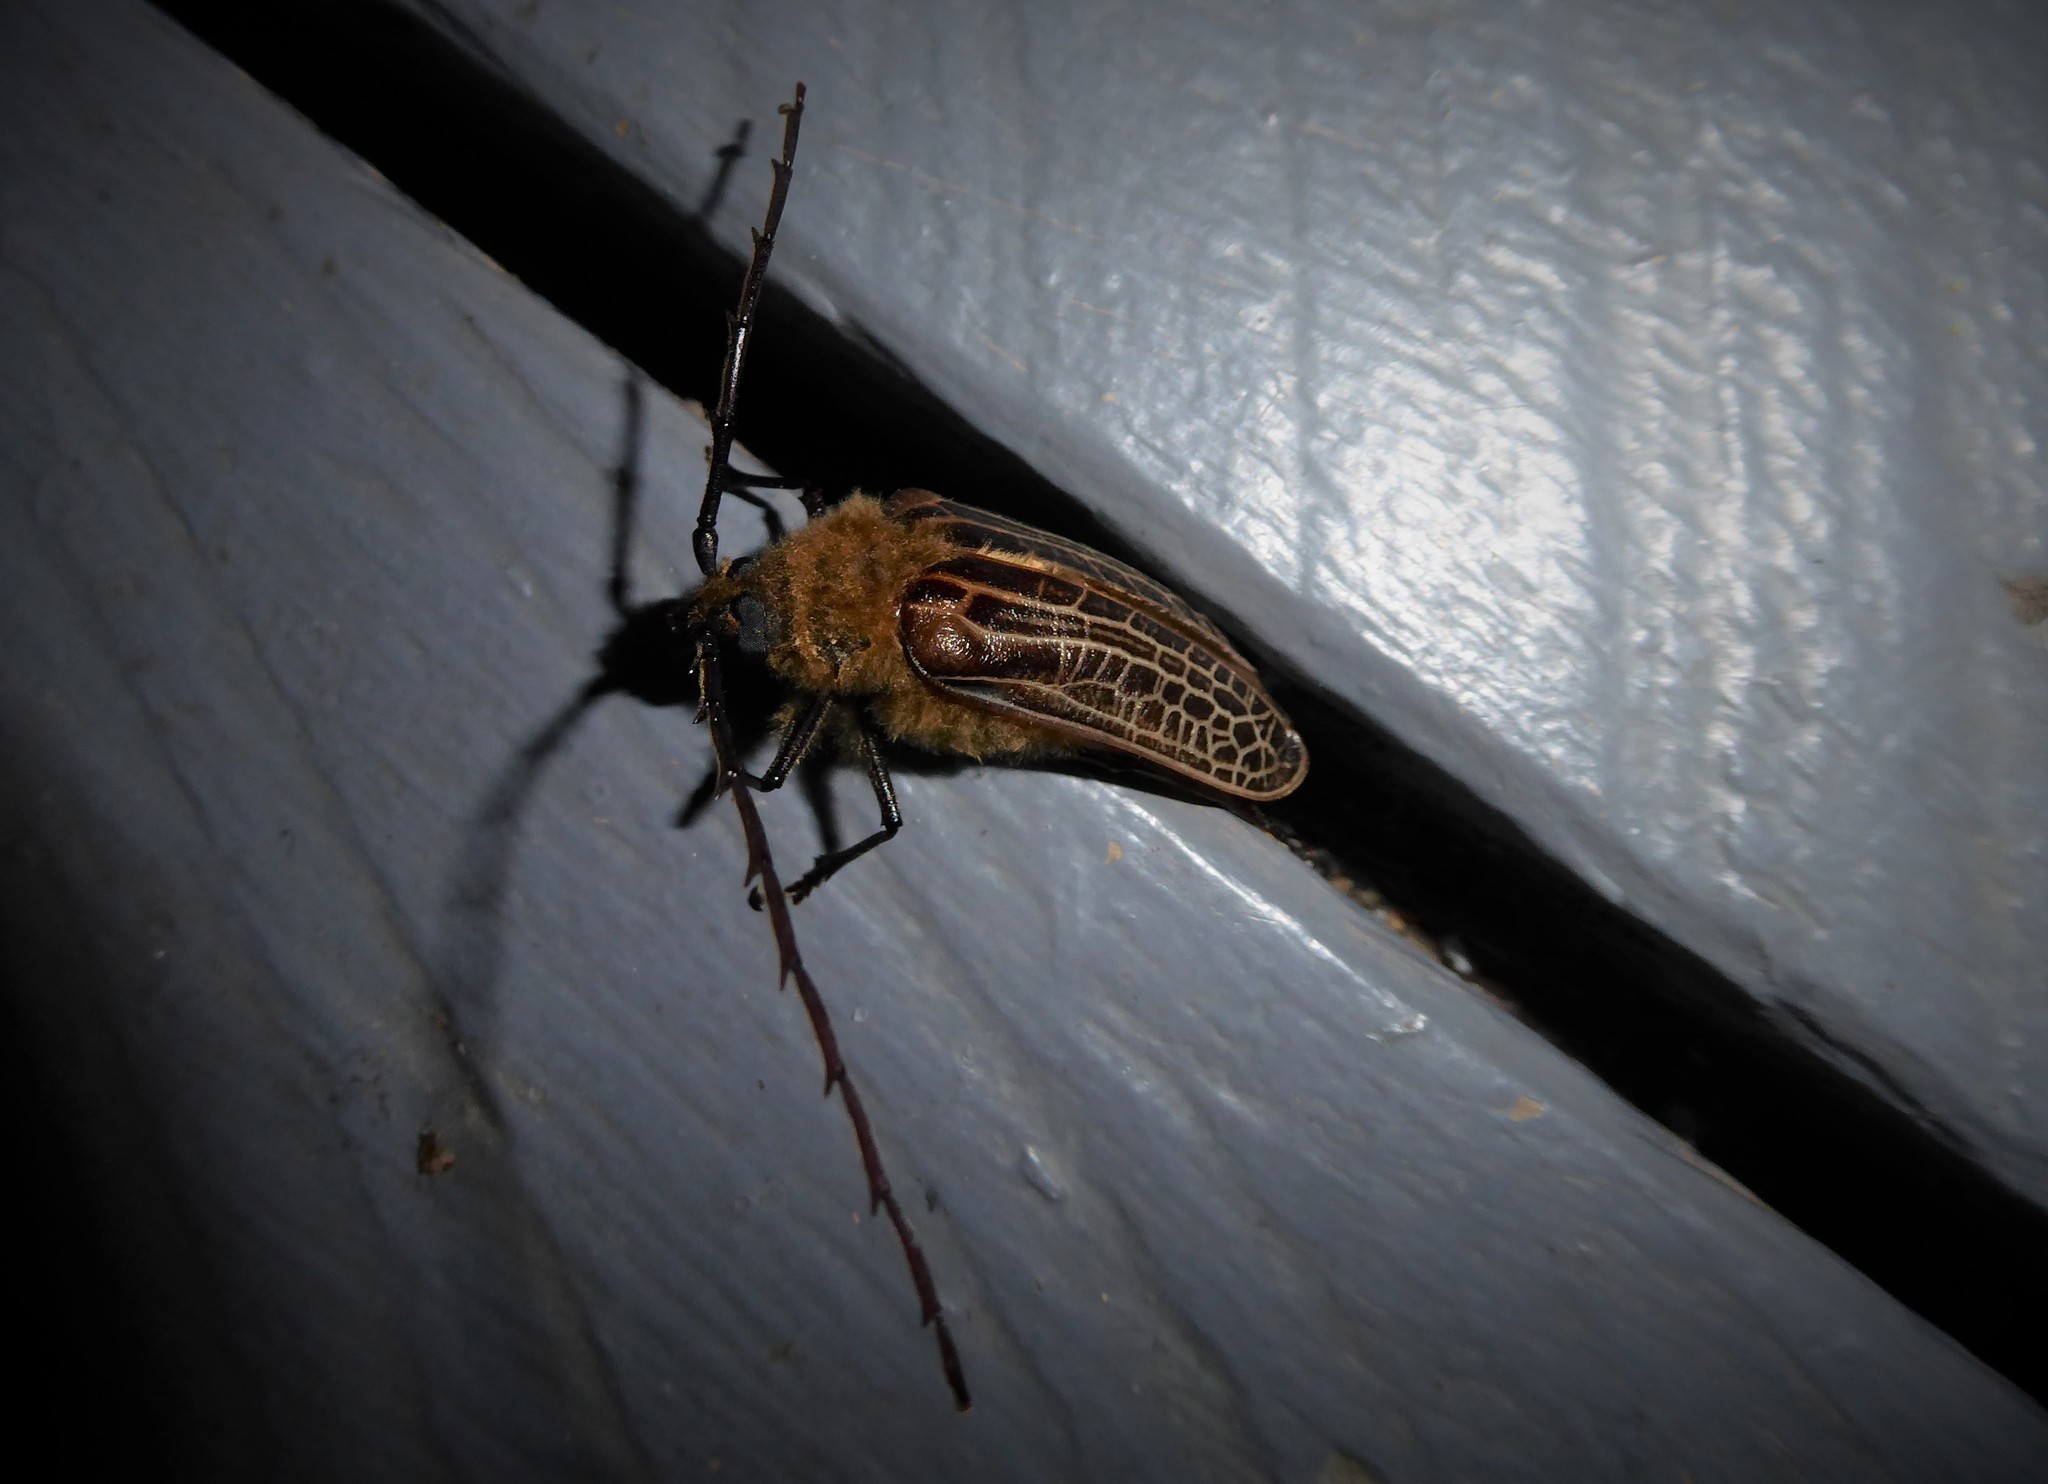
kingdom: Animalia
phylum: Arthropoda
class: Insecta
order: Coleoptera
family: Cerambycidae
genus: Prionoplus
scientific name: Prionoplus reticularis
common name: Huhu beetle
